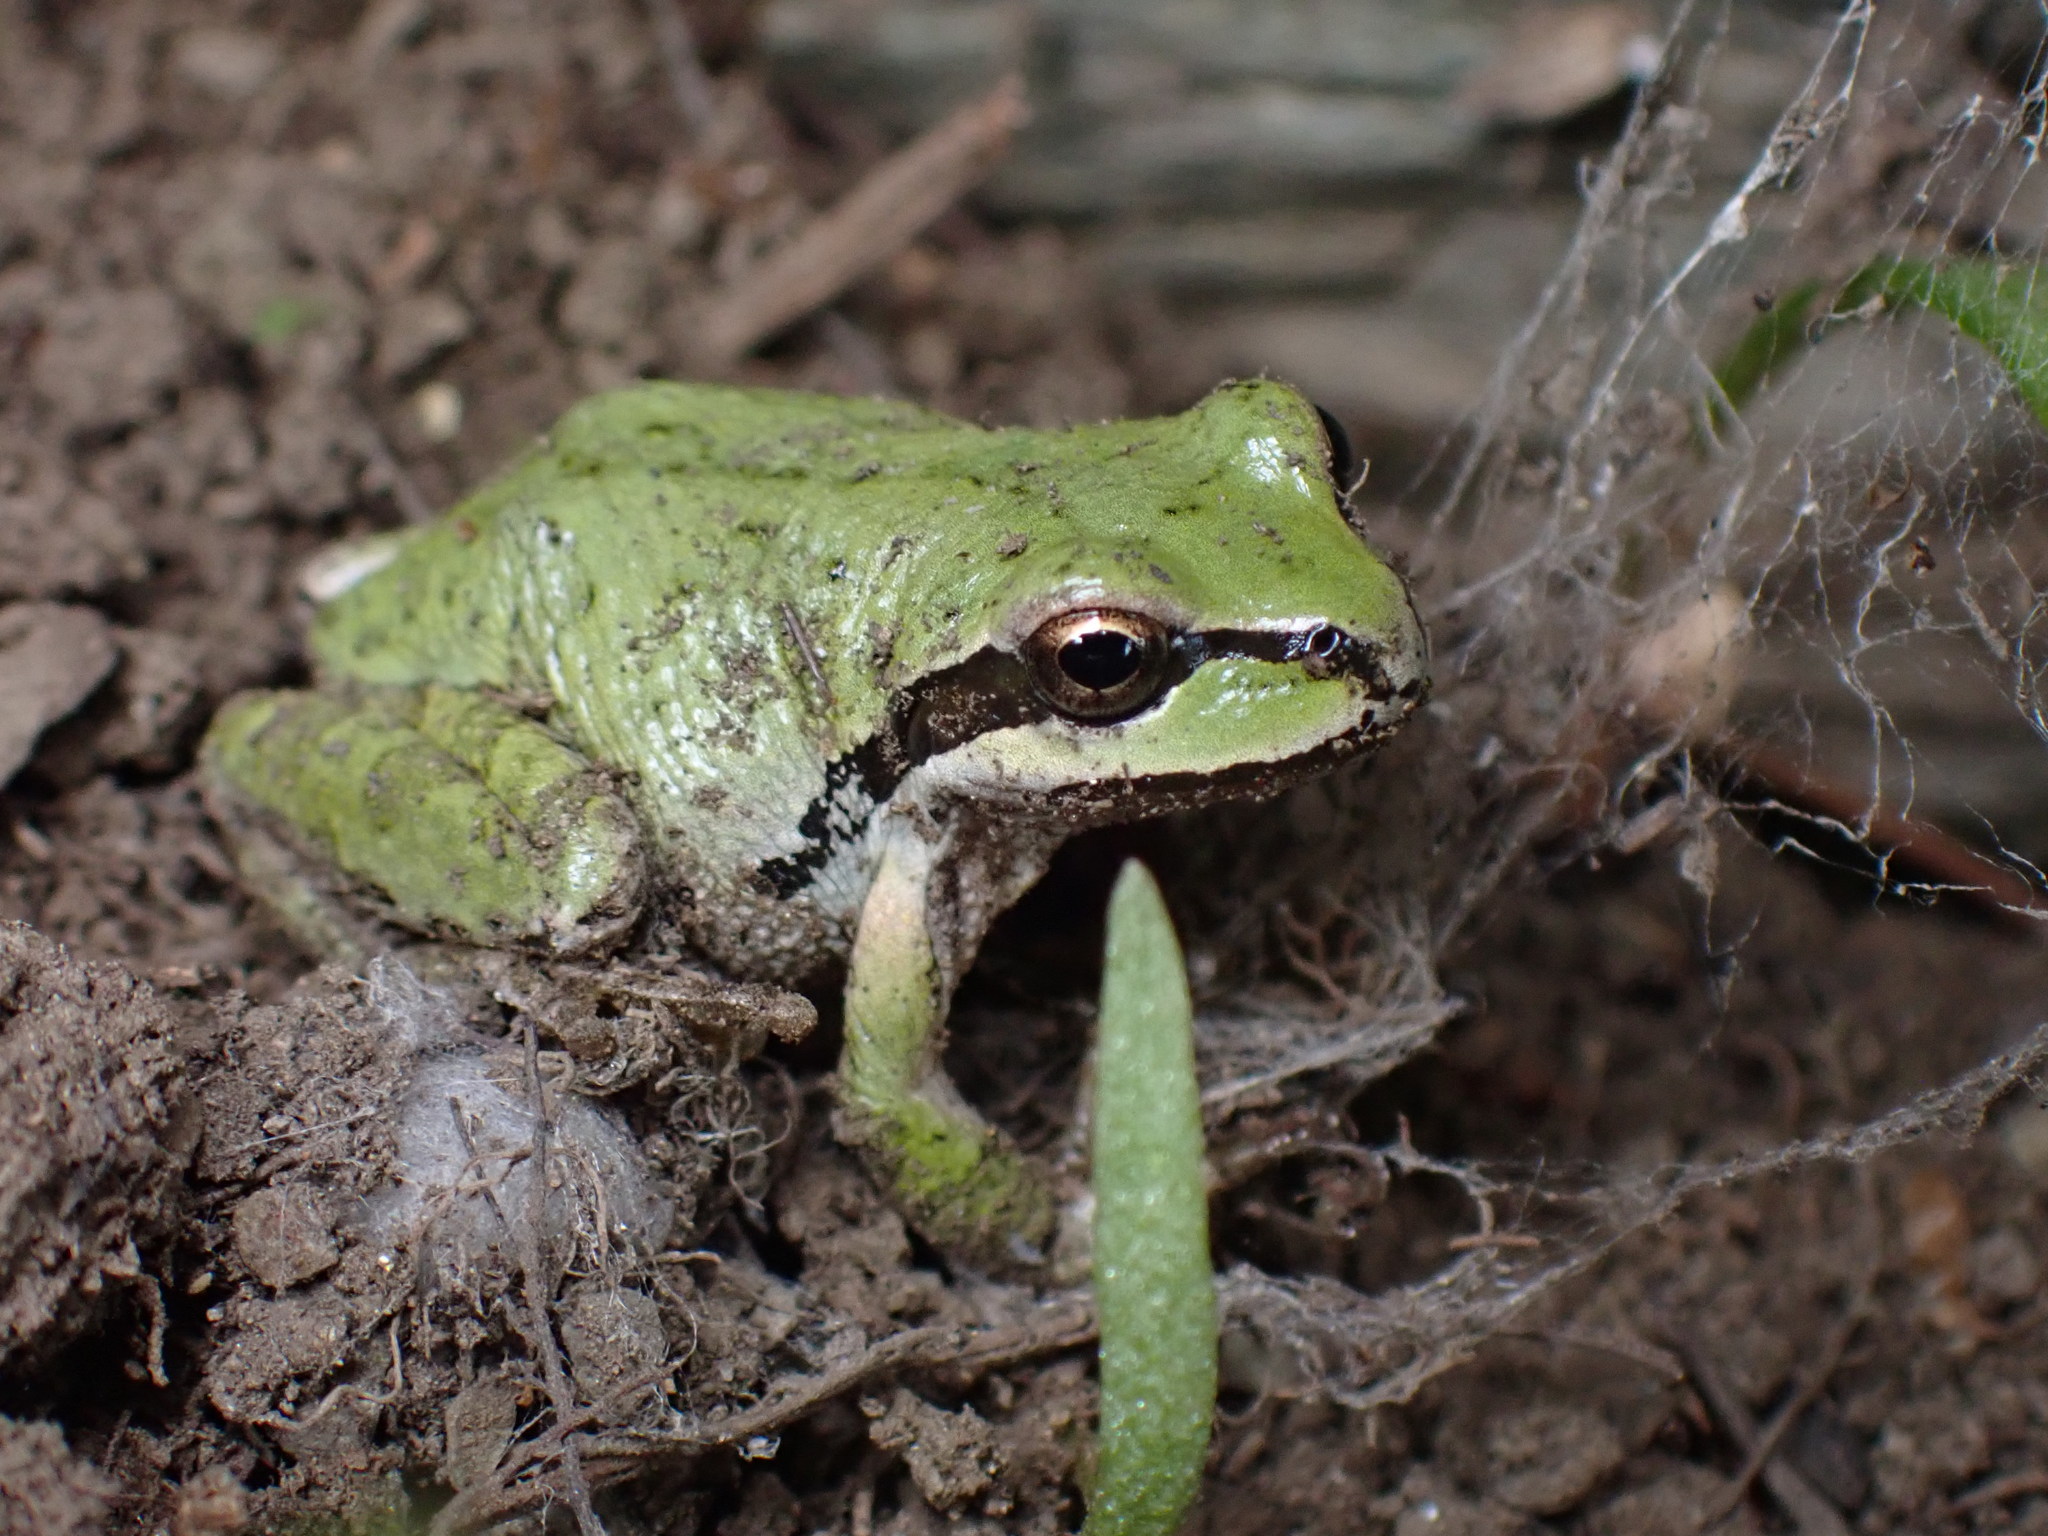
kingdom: Animalia
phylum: Chordata
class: Amphibia
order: Anura
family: Hylidae
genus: Pseudacris
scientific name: Pseudacris regilla
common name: Pacific chorus frog
